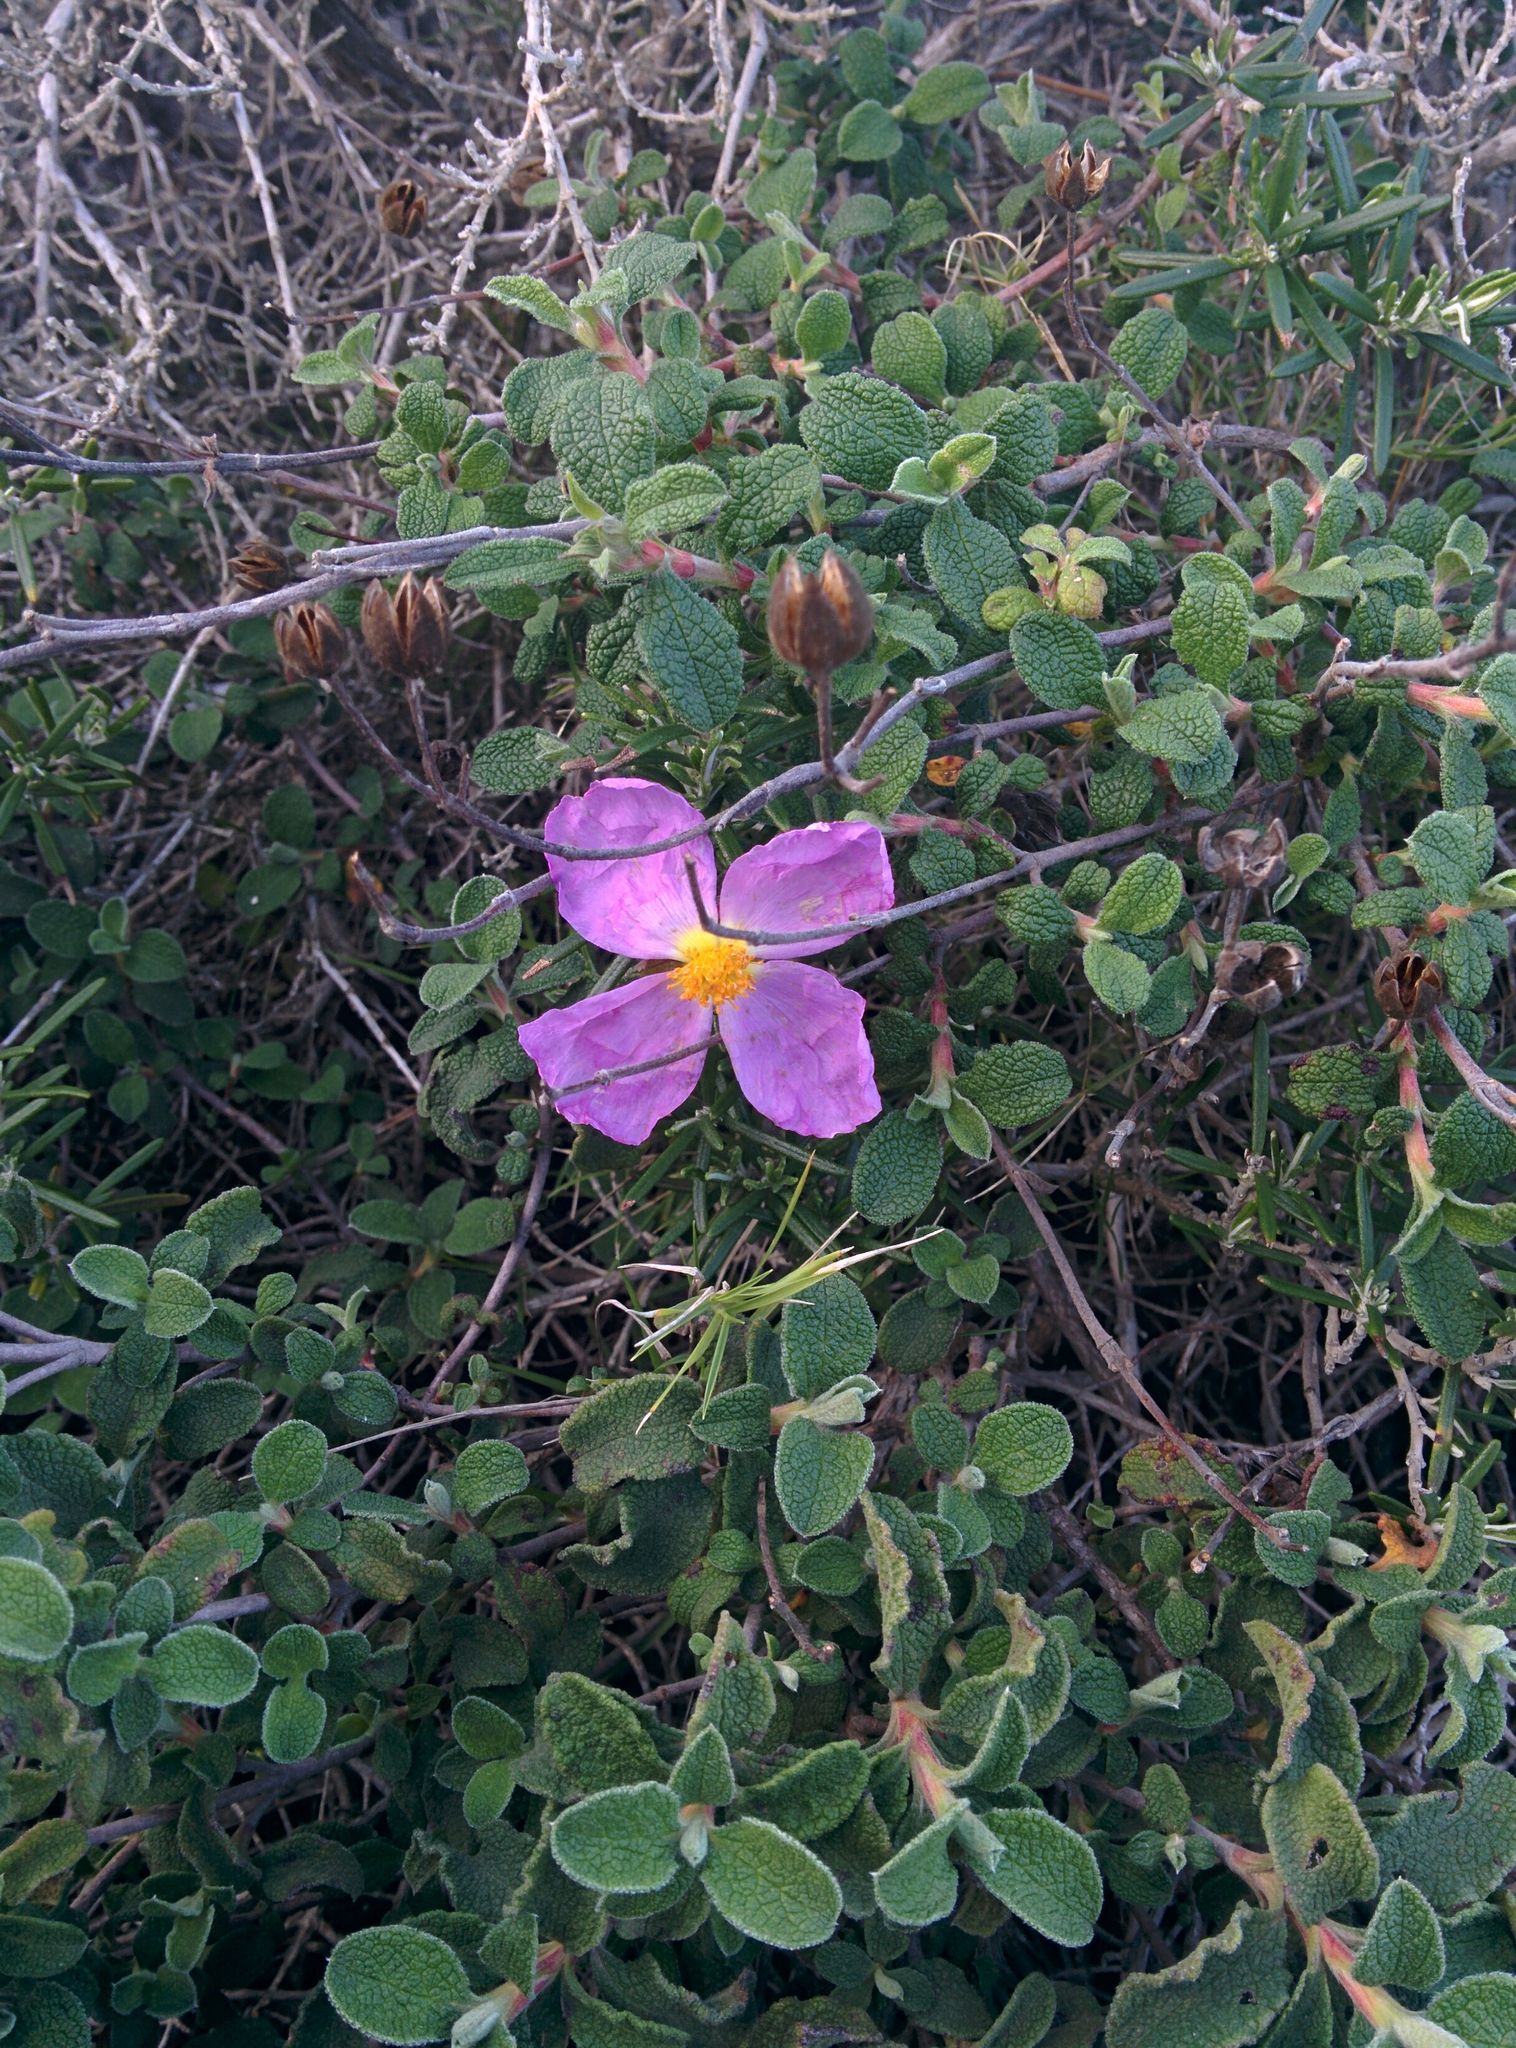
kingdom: Plantae
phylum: Tracheophyta
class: Magnoliopsida
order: Malvales
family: Cistaceae
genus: Cistus
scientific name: Cistus creticus
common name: Cretan rockrose
